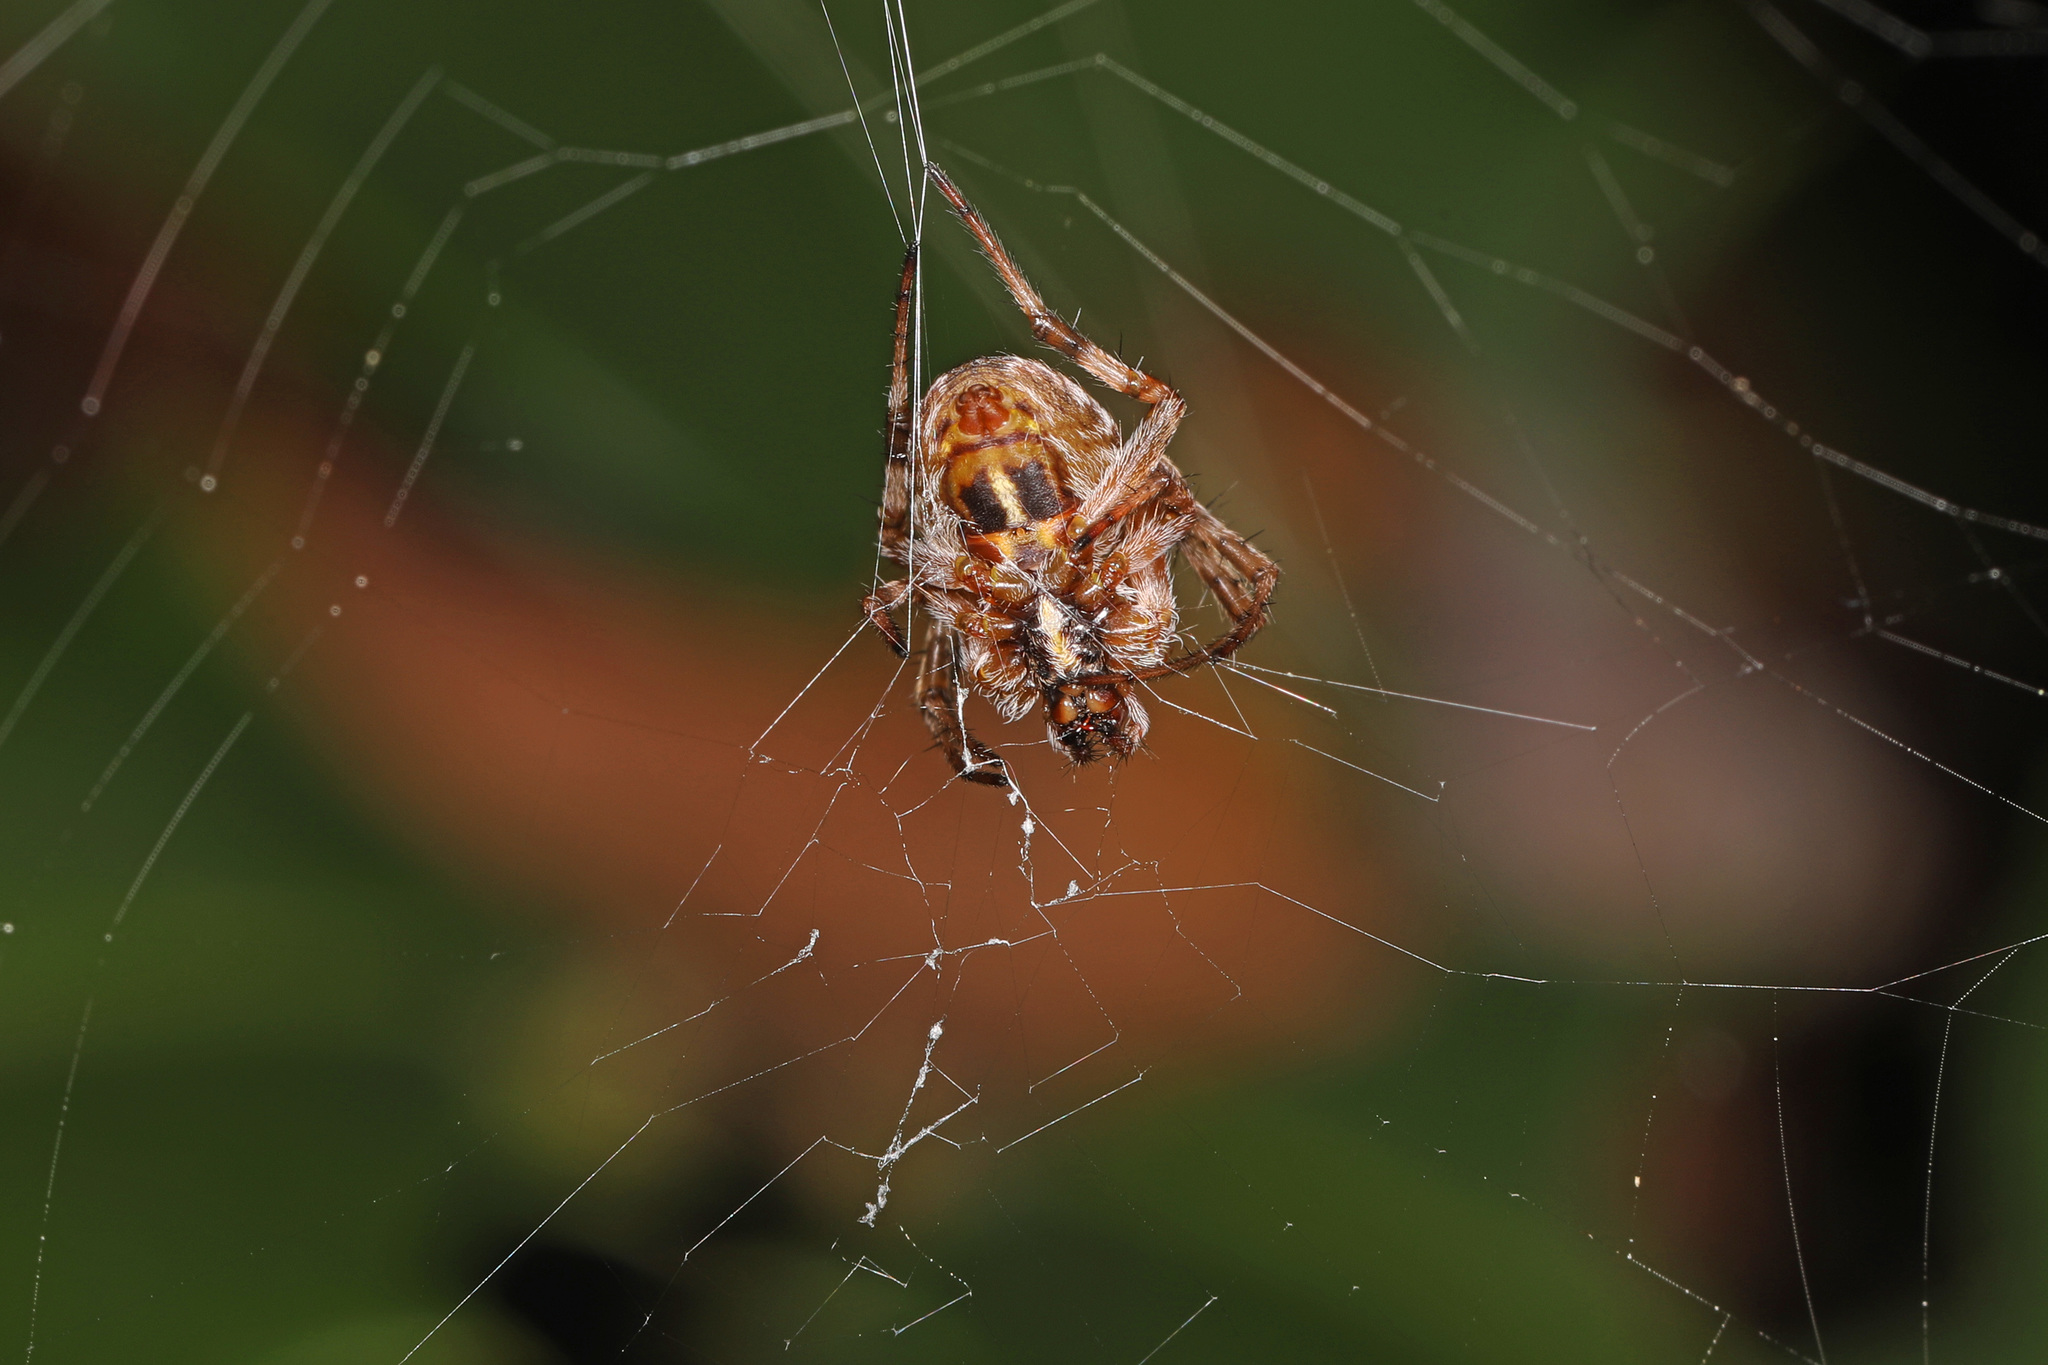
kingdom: Animalia
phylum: Arthropoda
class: Arachnida
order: Araneae
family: Araneidae
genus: Metepeira
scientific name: Metepeira labyrinthea
